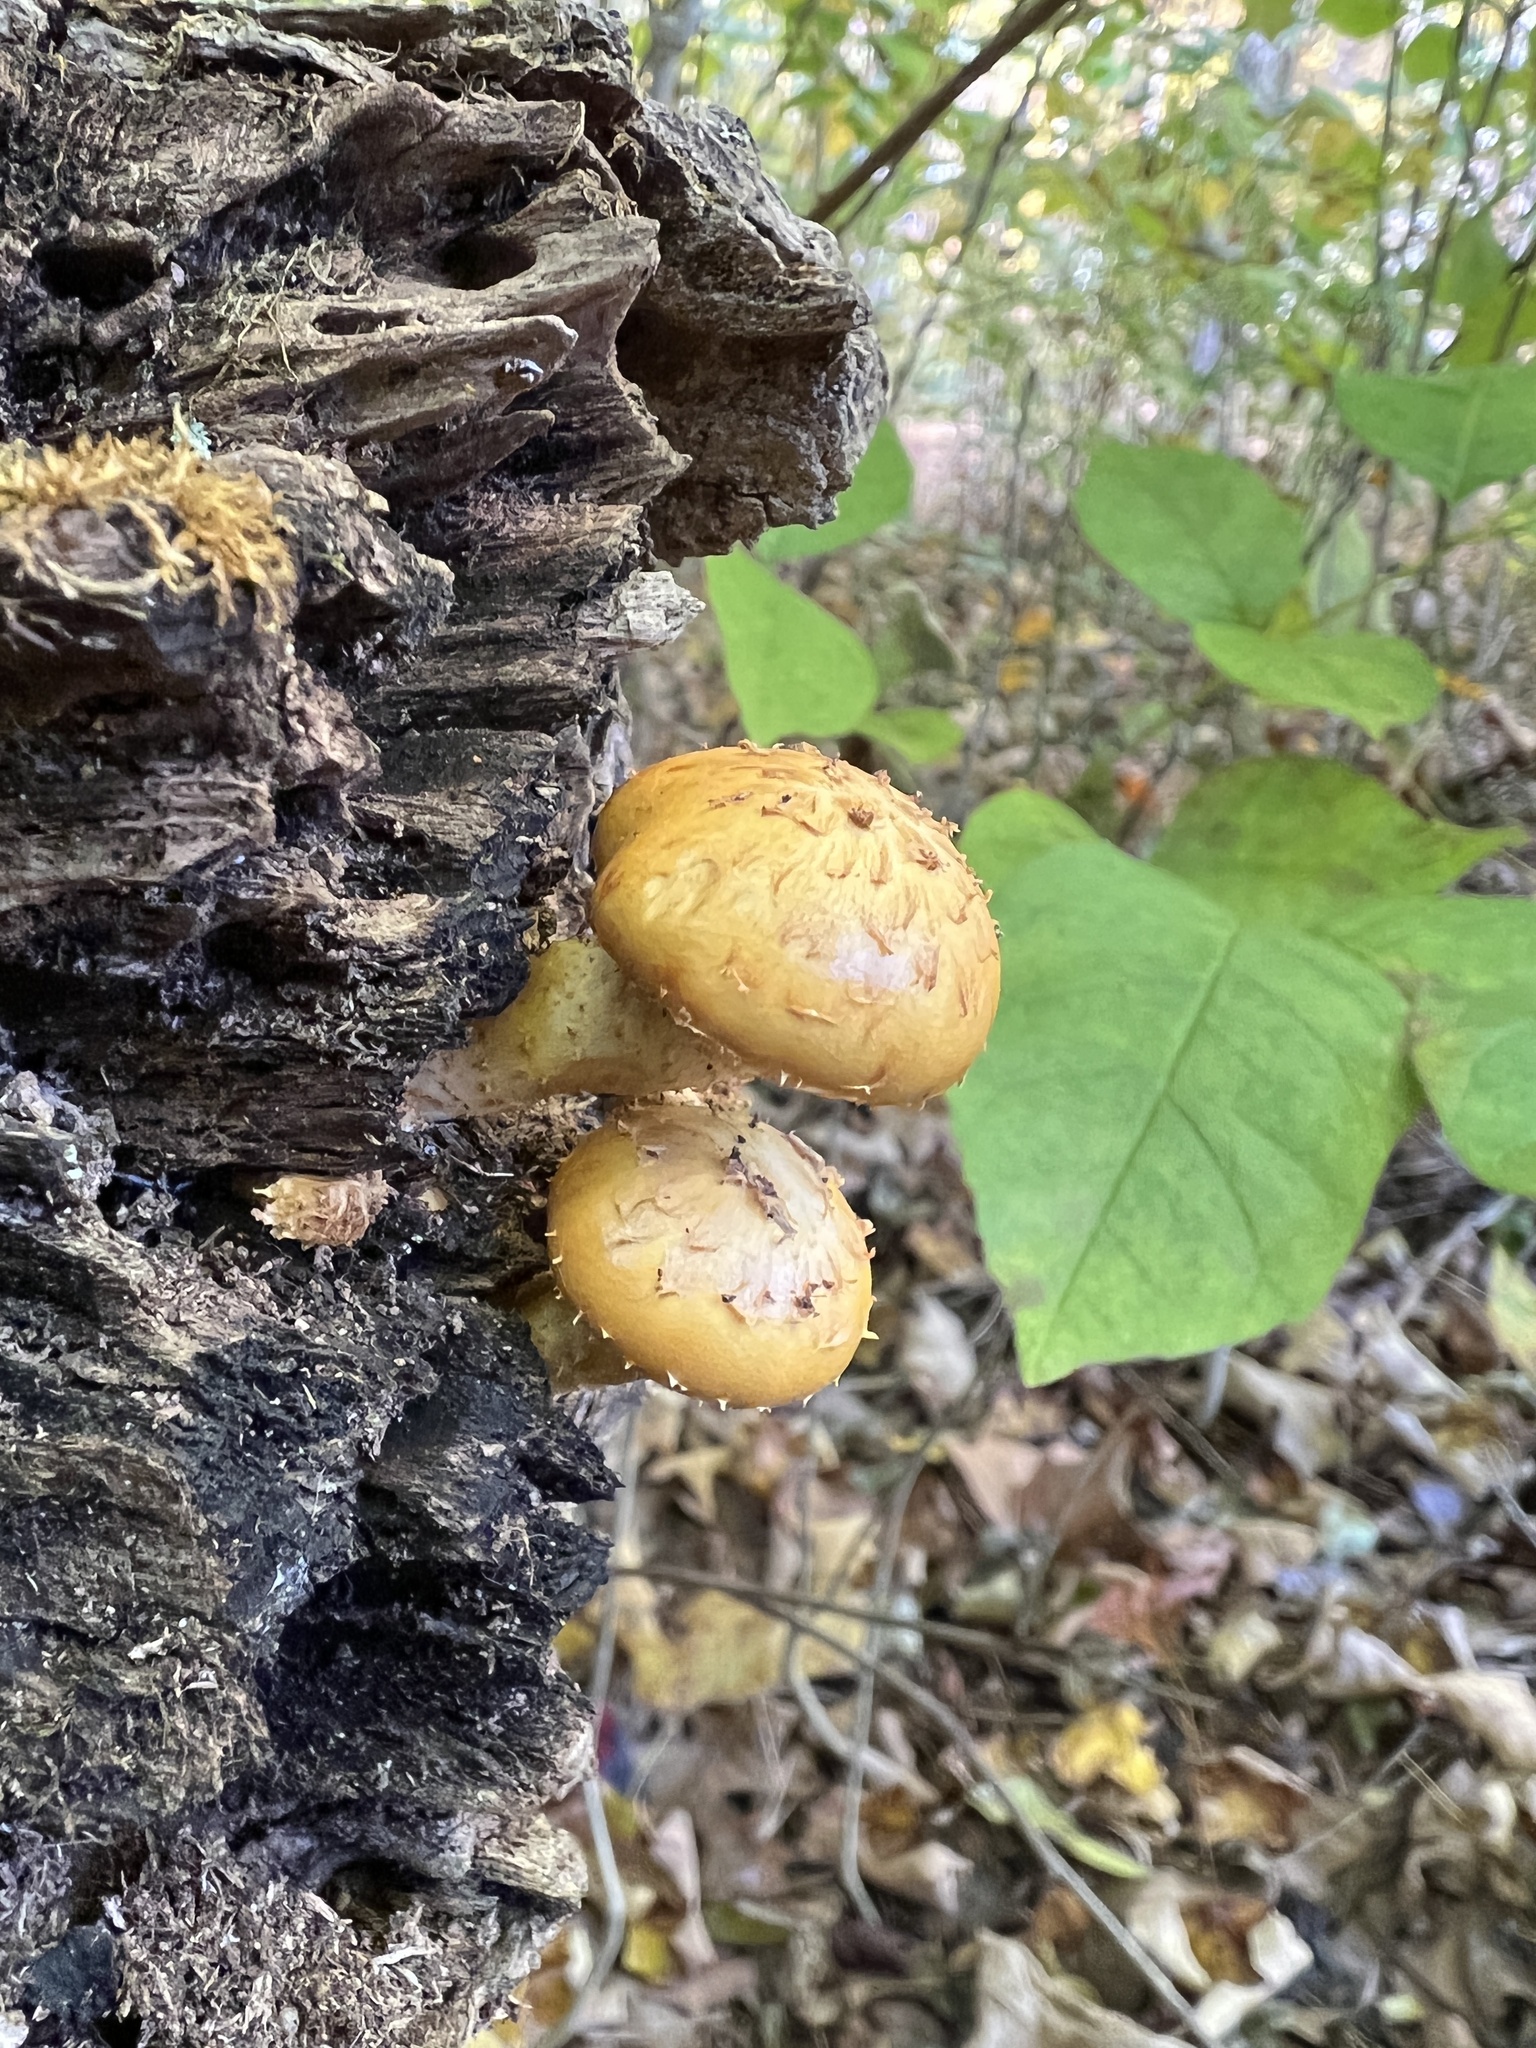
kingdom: Fungi
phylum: Basidiomycota
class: Agaricomycetes
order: Agaricales
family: Strophariaceae
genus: Pholiota
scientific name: Pholiota aurivella
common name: Golden scalycap
